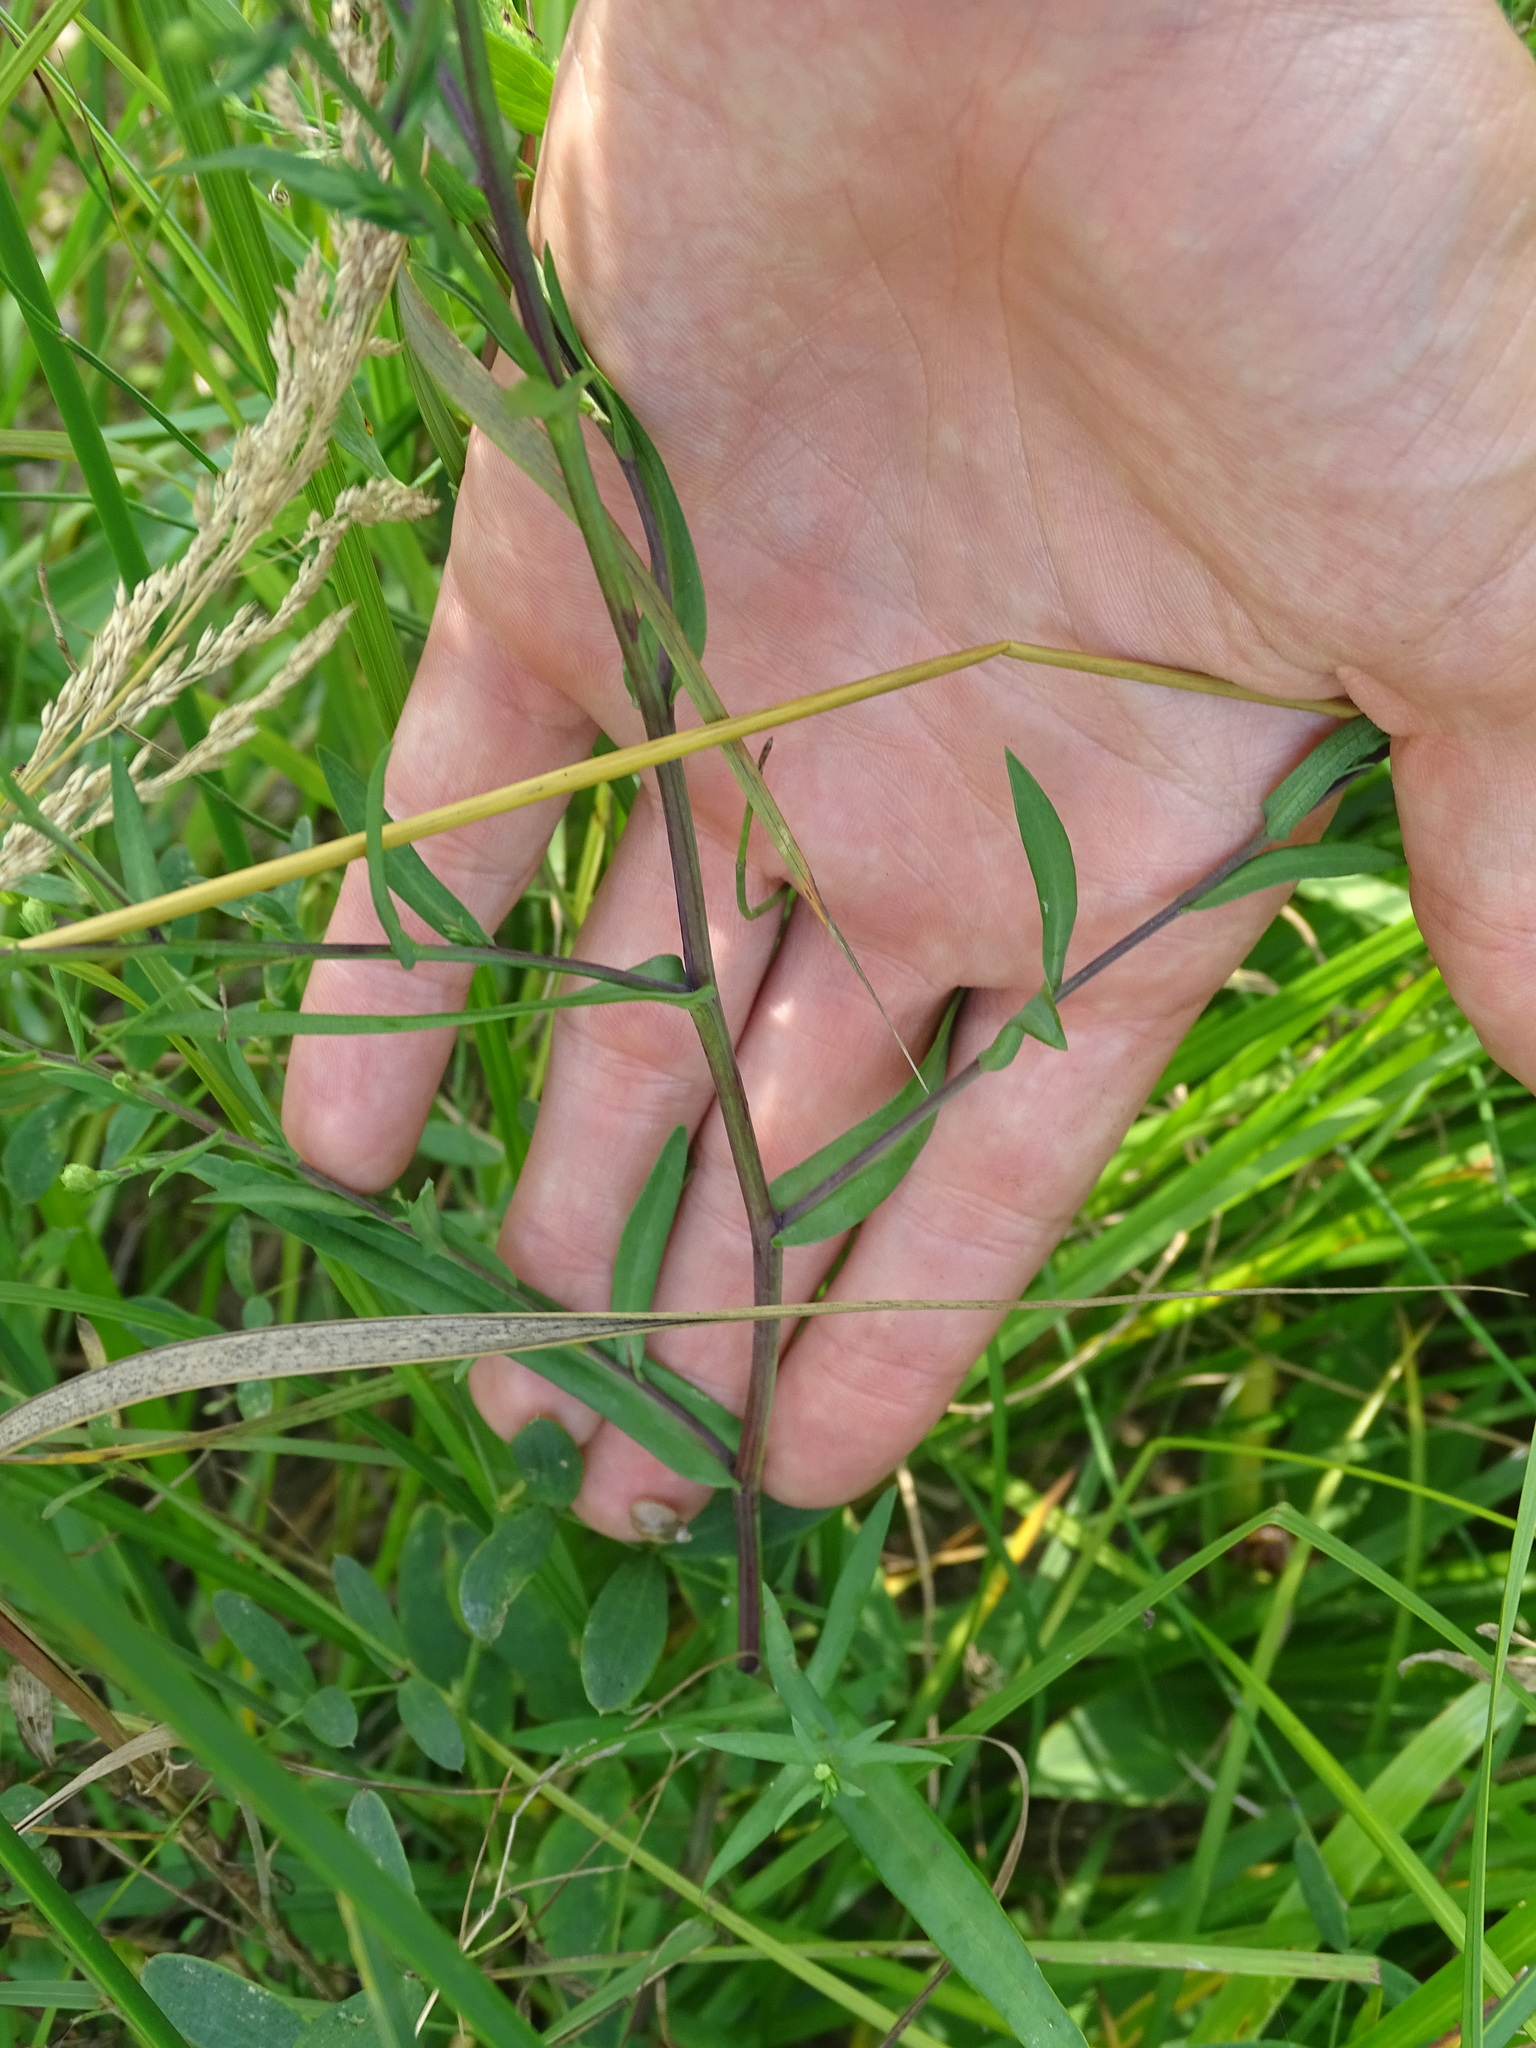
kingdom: Plantae
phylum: Tracheophyta
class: Magnoliopsida
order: Asterales
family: Asteraceae
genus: Symphyotrichum
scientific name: Symphyotrichum laeve
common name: Glaucous aster
